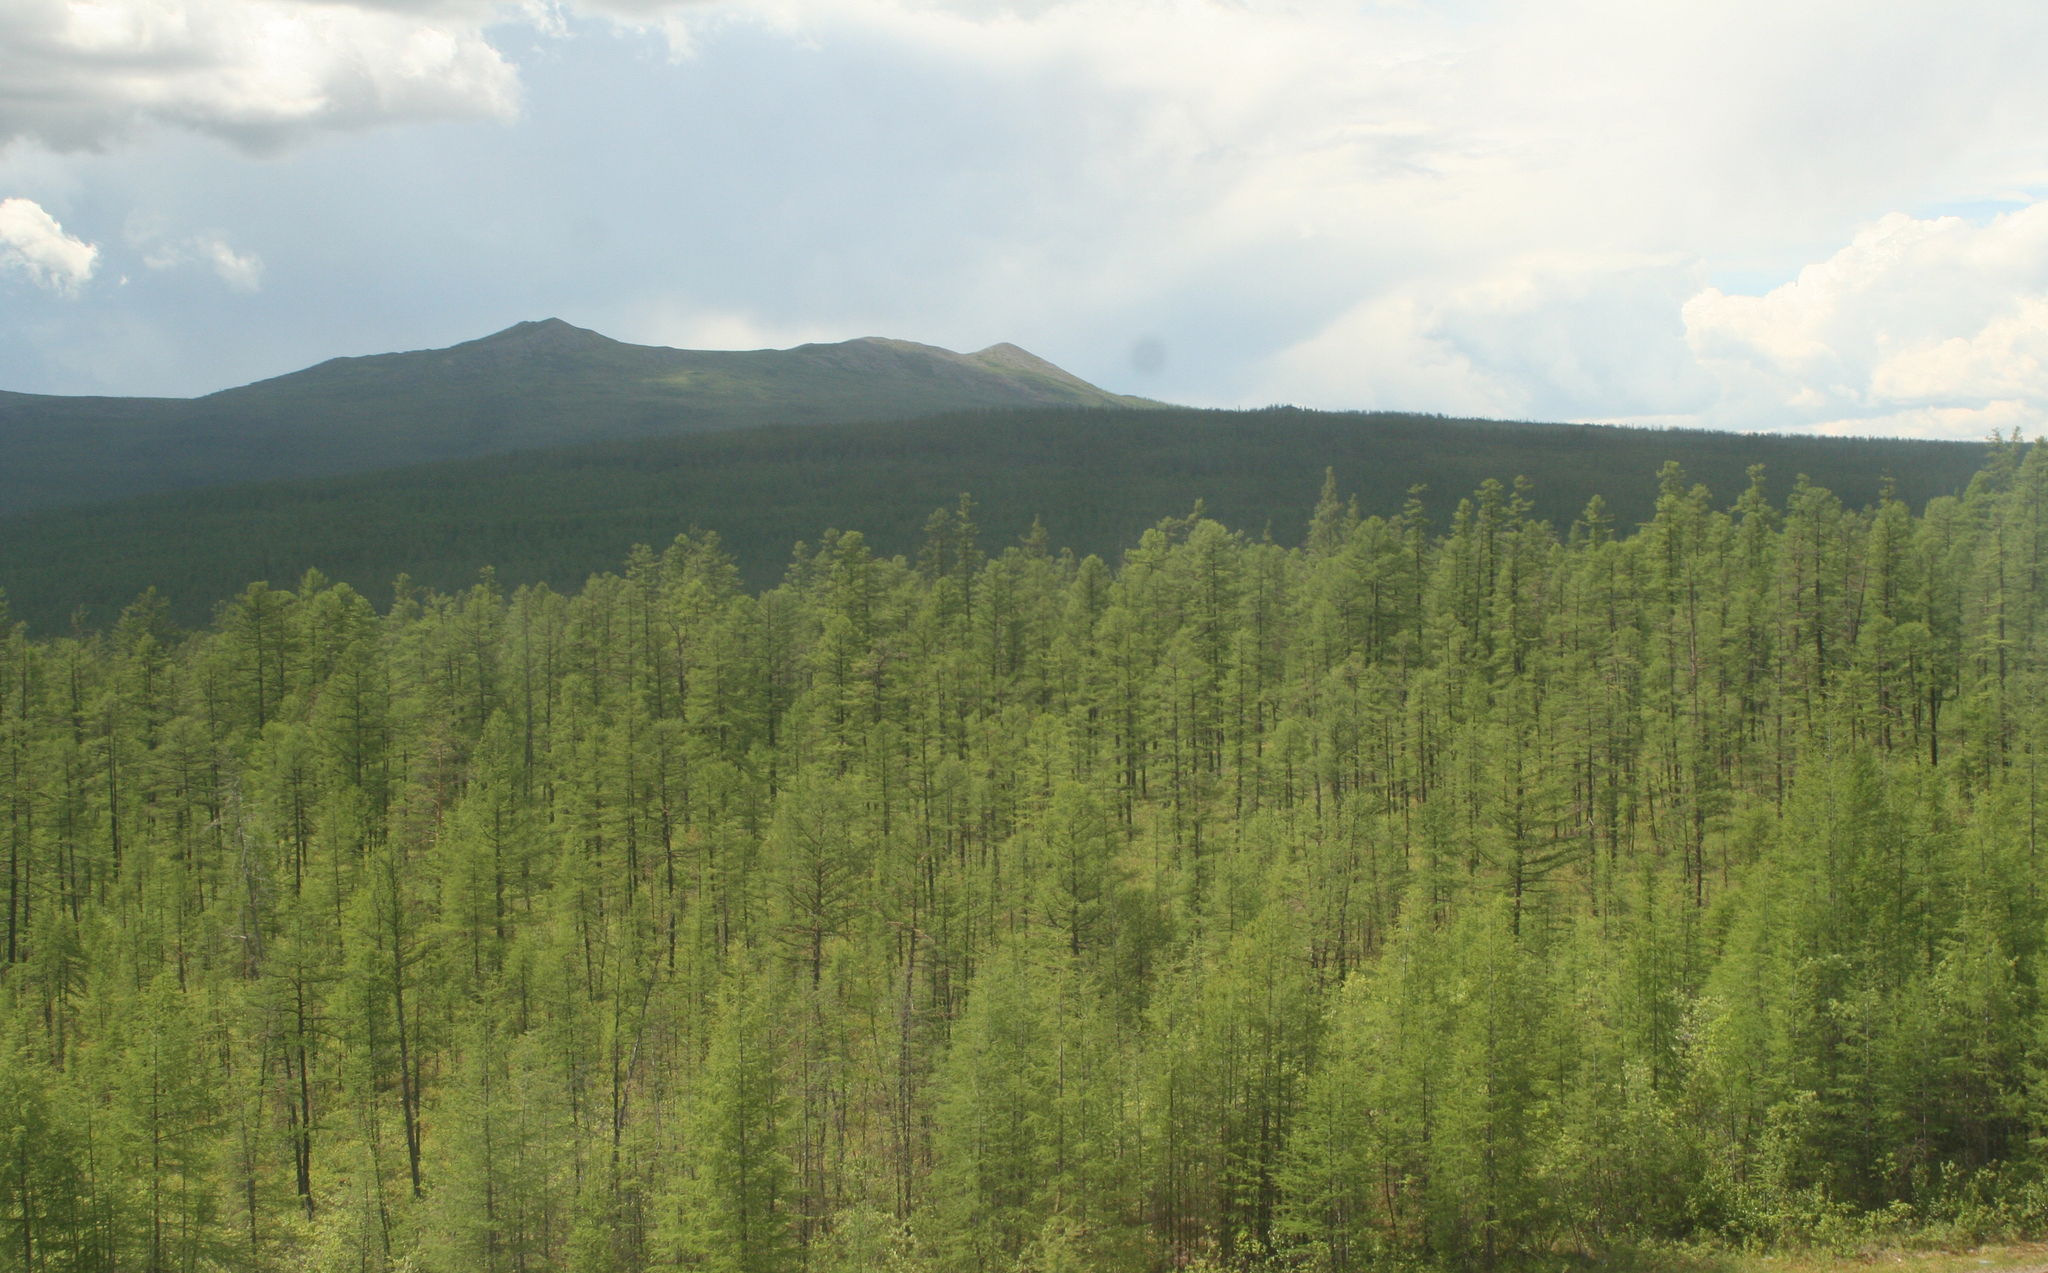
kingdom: Plantae
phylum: Tracheophyta
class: Pinopsida
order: Pinales
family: Pinaceae
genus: Larix
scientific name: Larix gmelinii
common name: Dahurian larch
